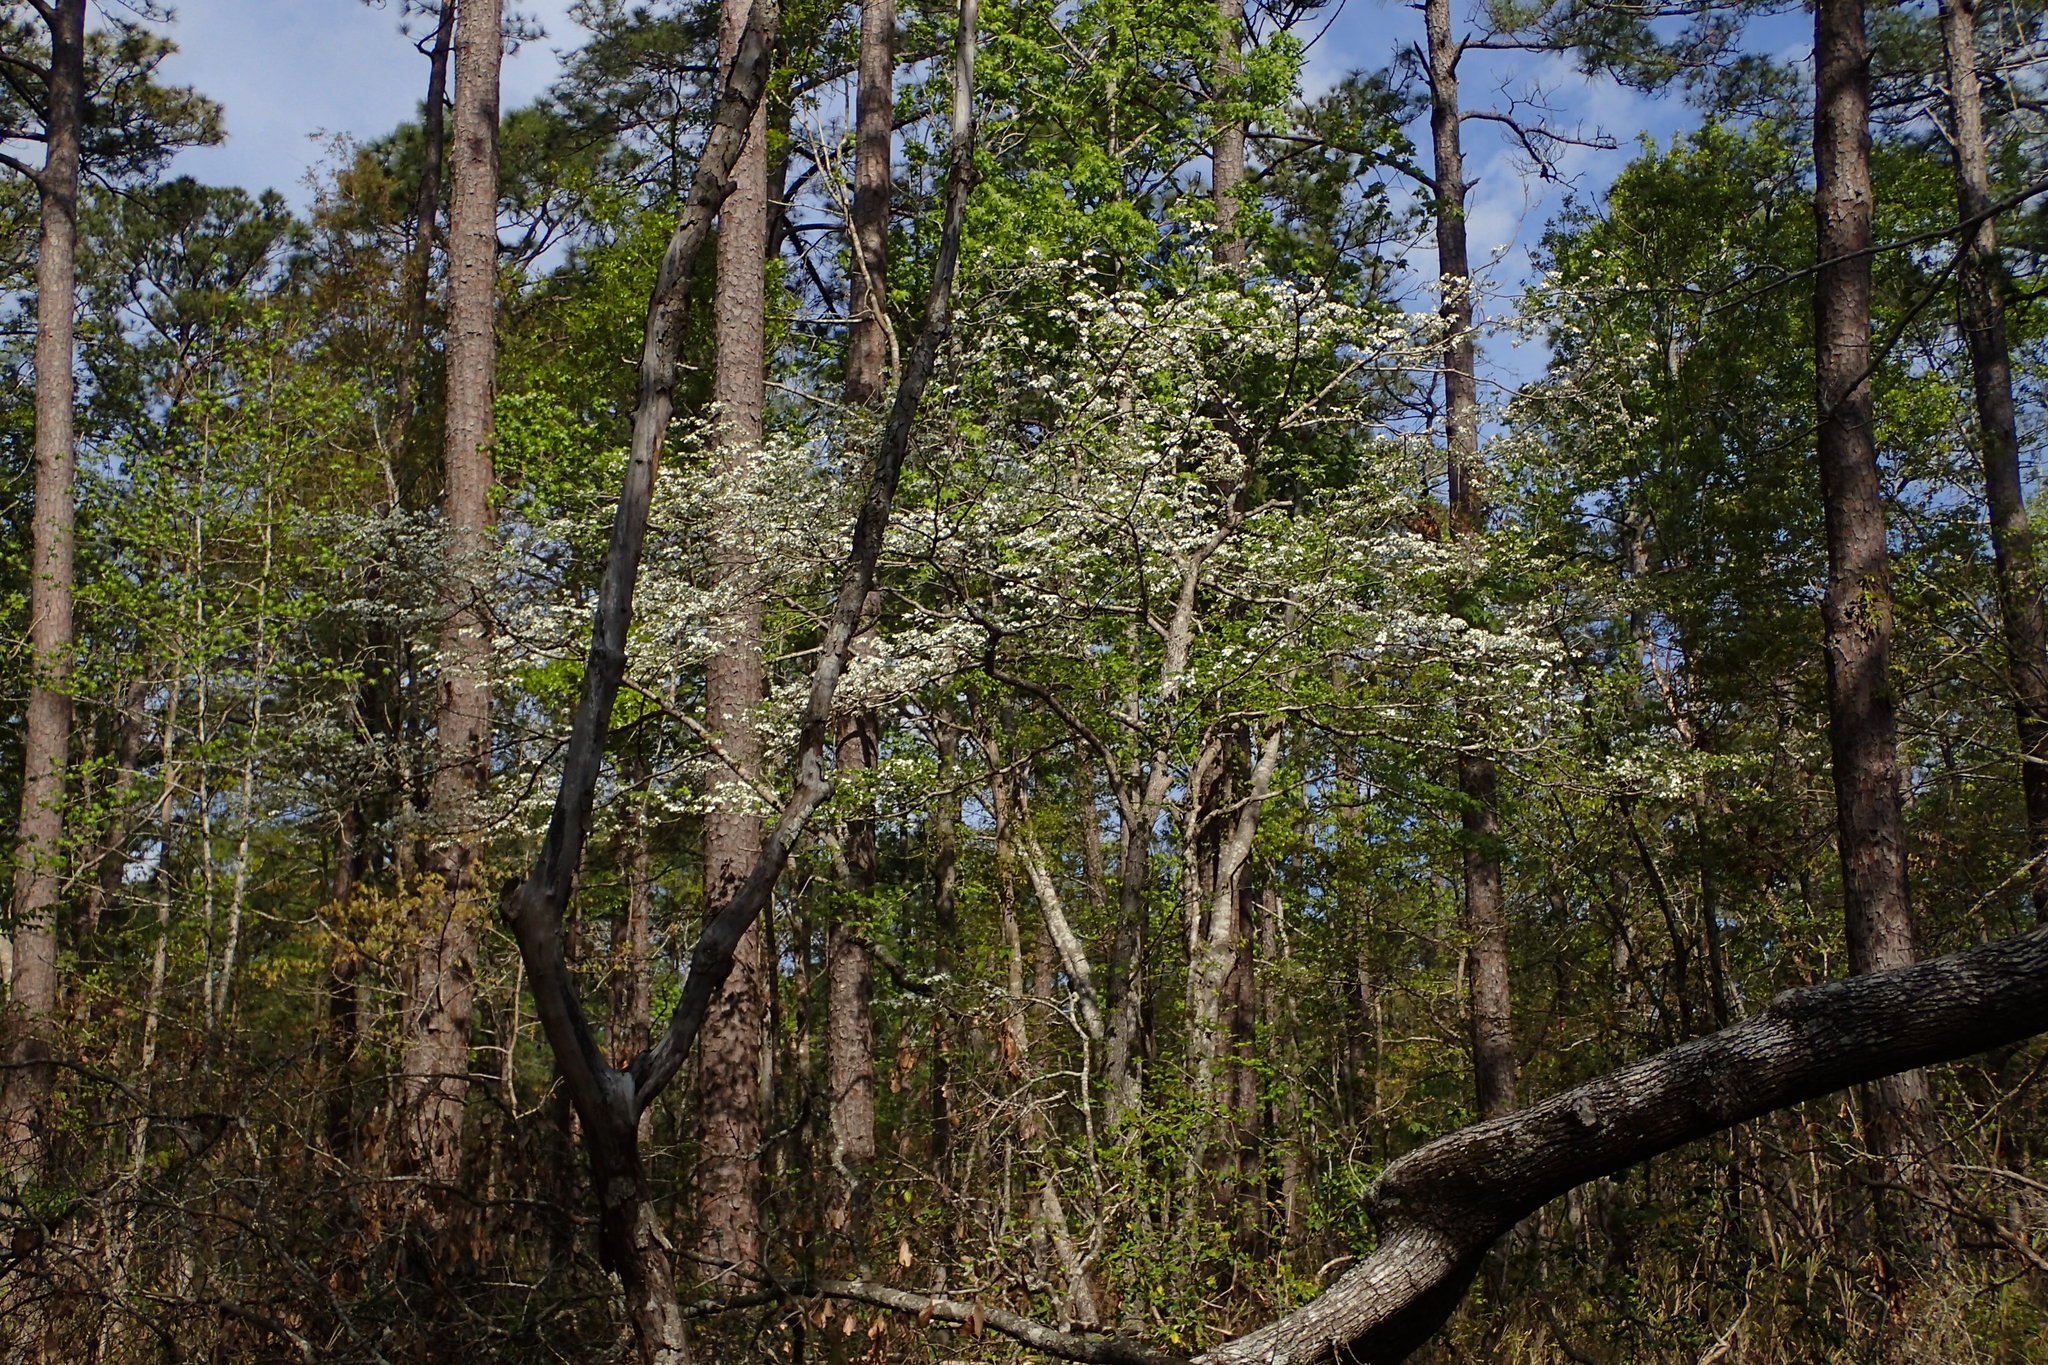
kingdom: Plantae
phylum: Tracheophyta
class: Magnoliopsida
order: Cornales
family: Cornaceae
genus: Cornus
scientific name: Cornus florida
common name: Flowering dogwood
